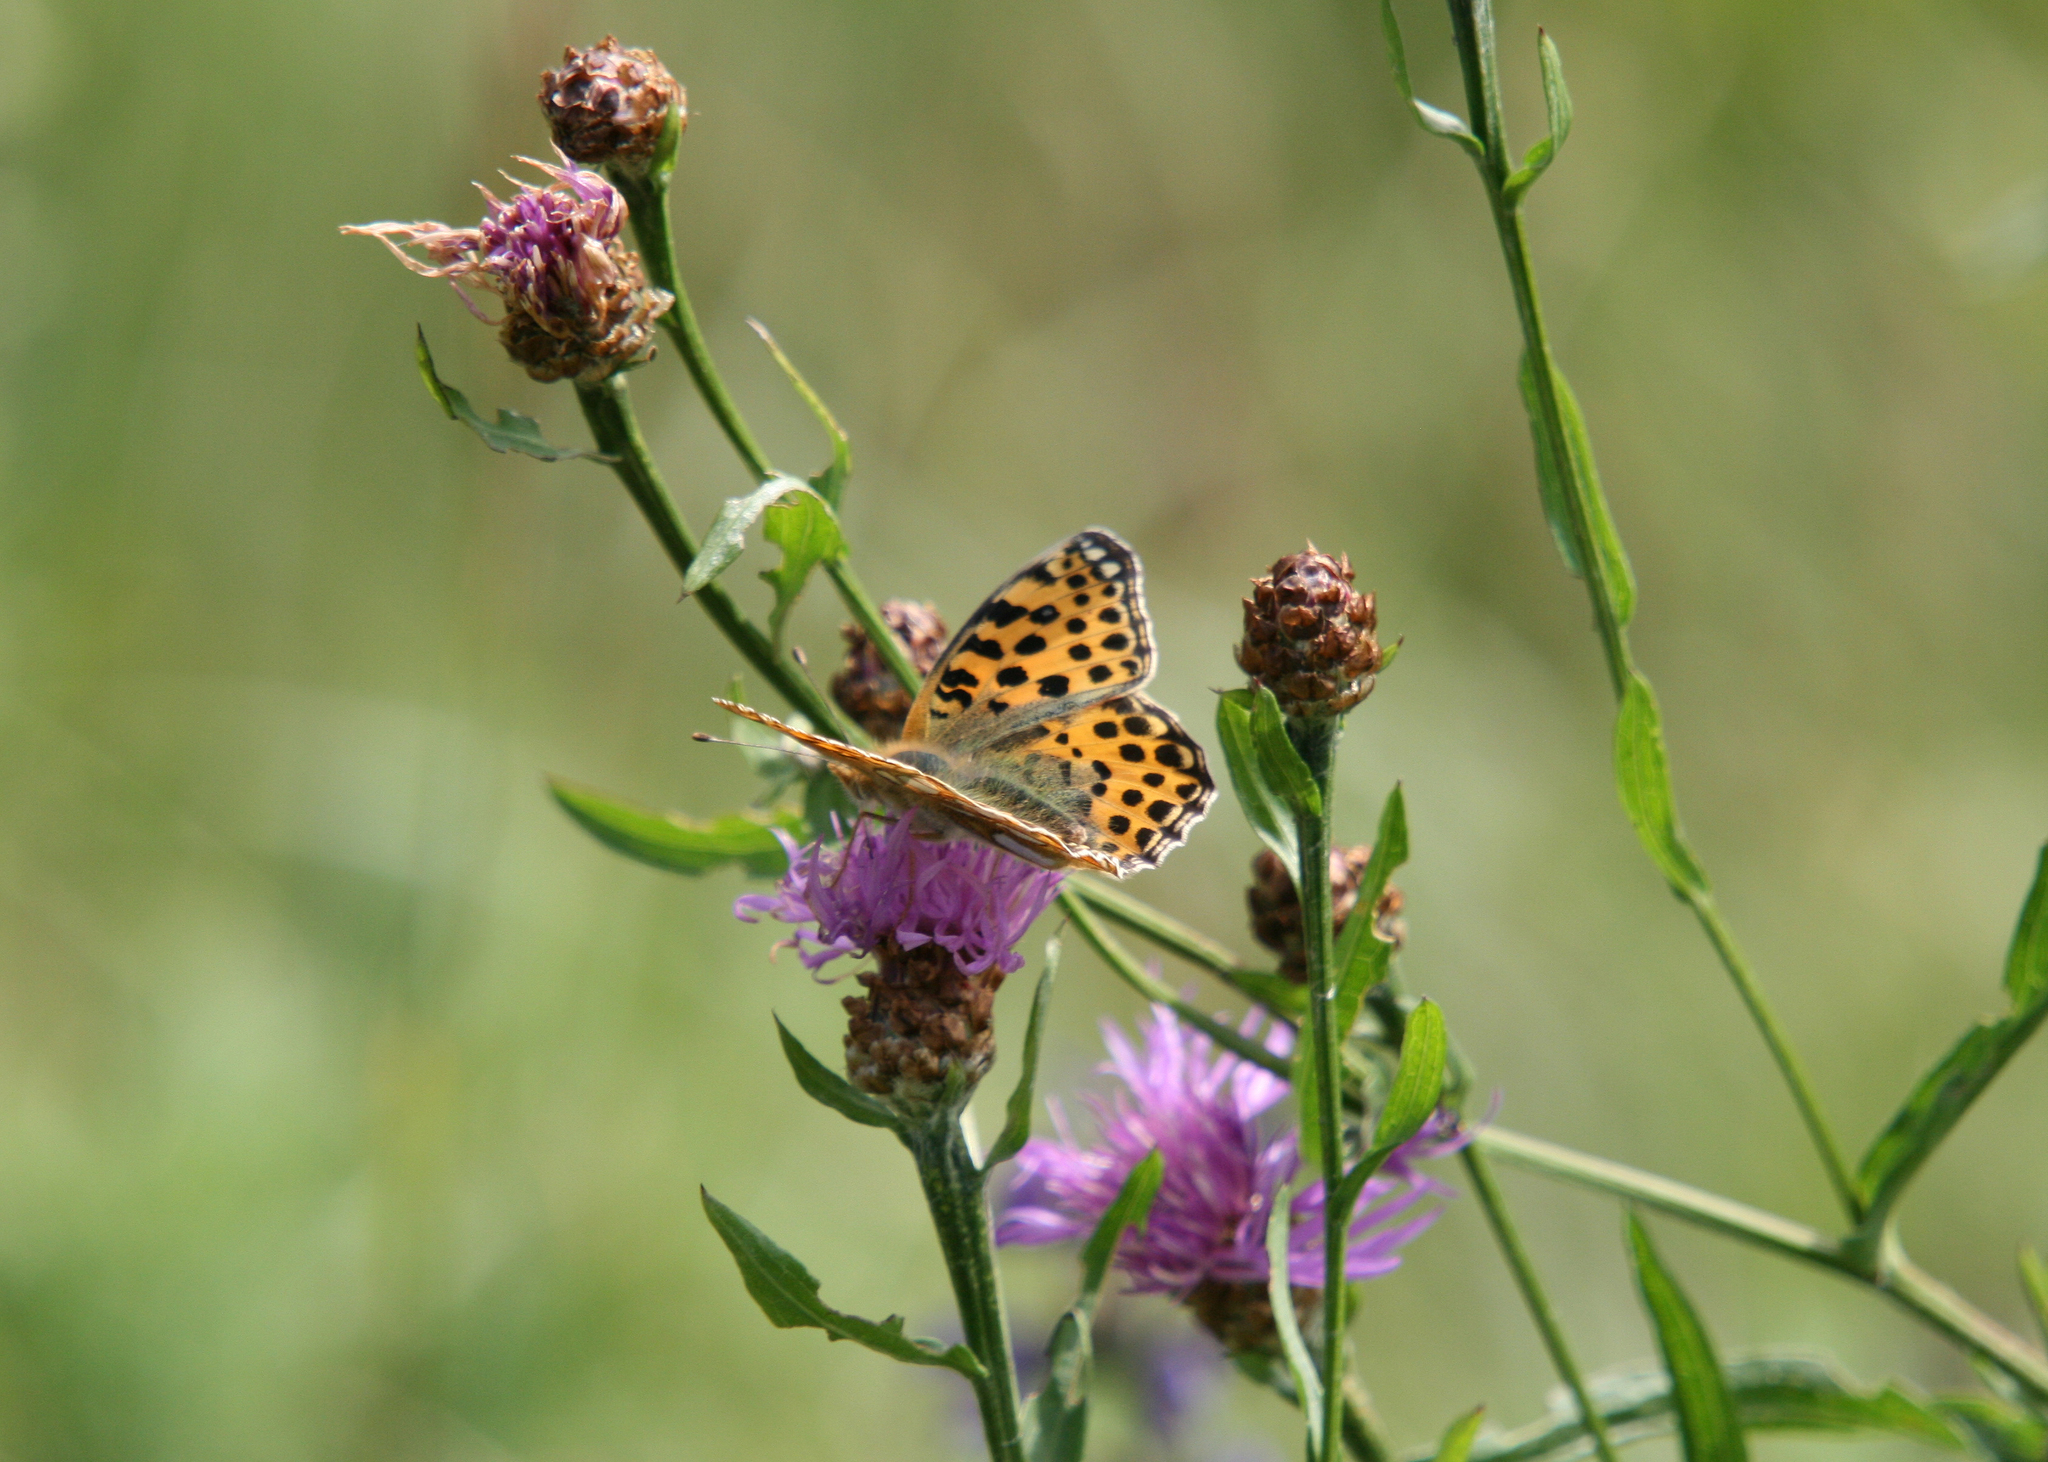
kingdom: Animalia
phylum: Arthropoda
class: Insecta
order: Lepidoptera
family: Nymphalidae
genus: Issoria
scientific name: Issoria lathonia
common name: Queen of spain fritillary
